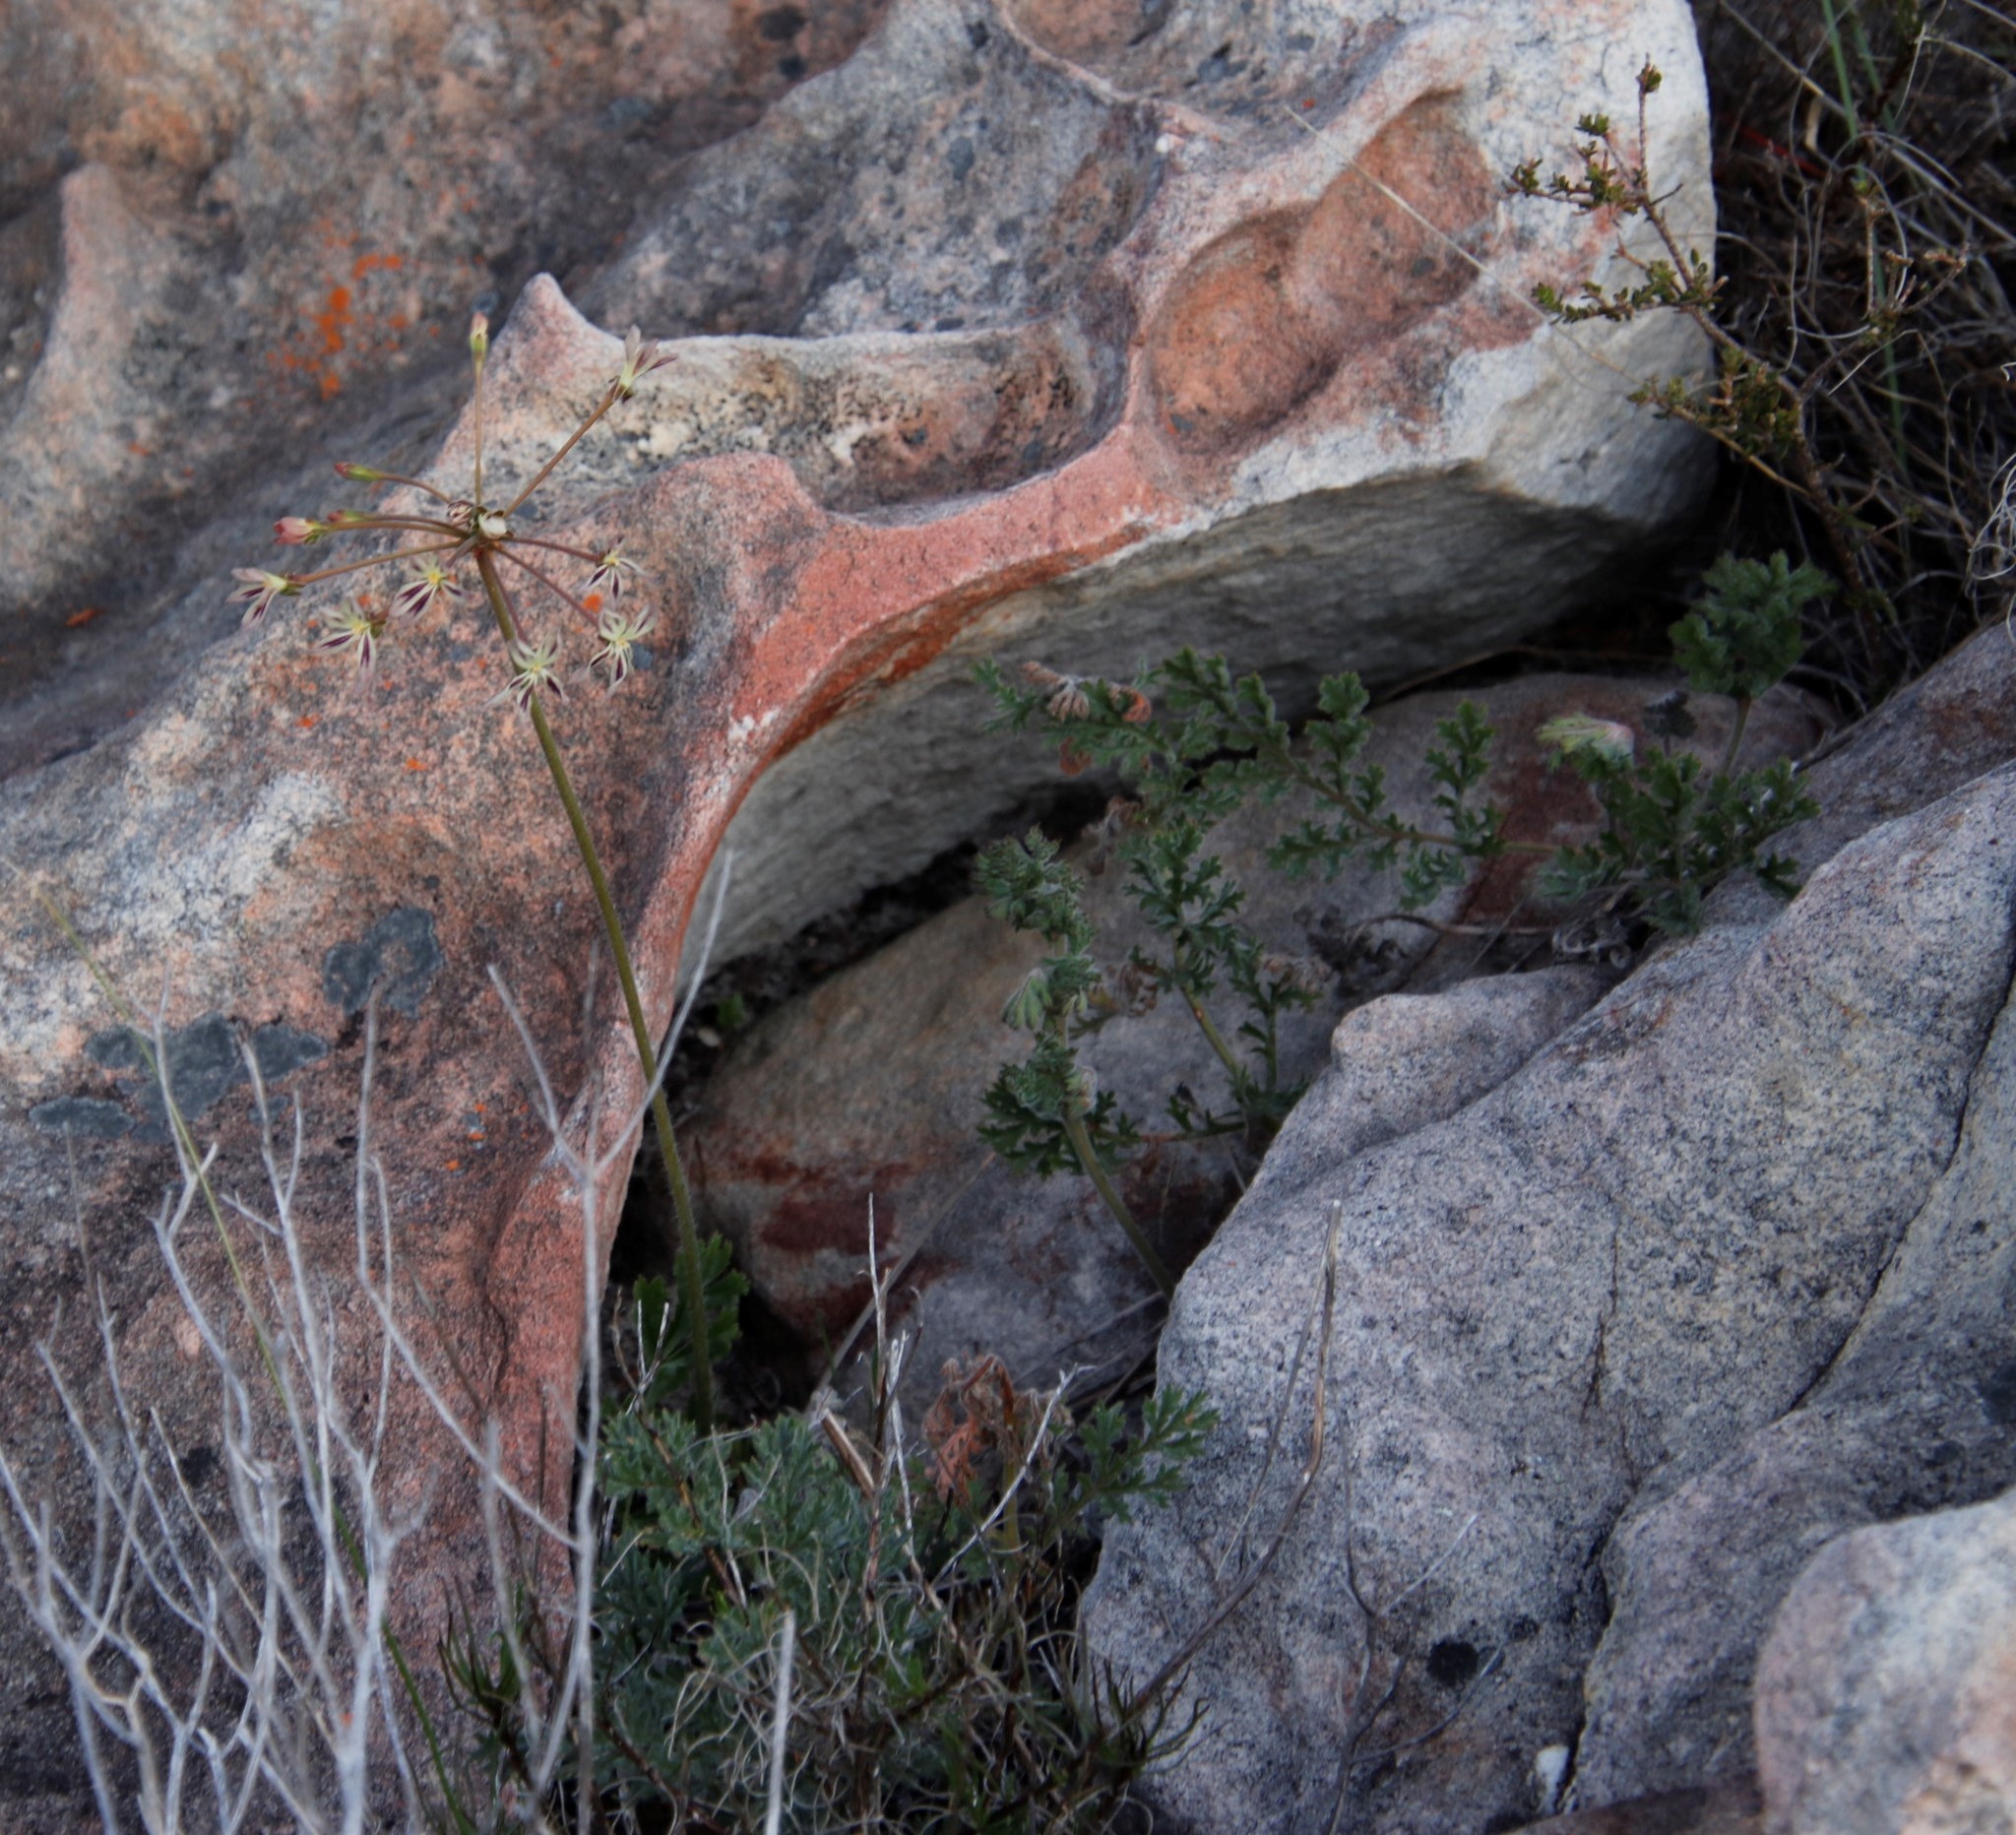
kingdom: Plantae
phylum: Tracheophyta
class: Magnoliopsida
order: Geraniales
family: Geraniaceae
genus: Pelargonium
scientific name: Pelargonium triste
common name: Night-scent pelargonium
